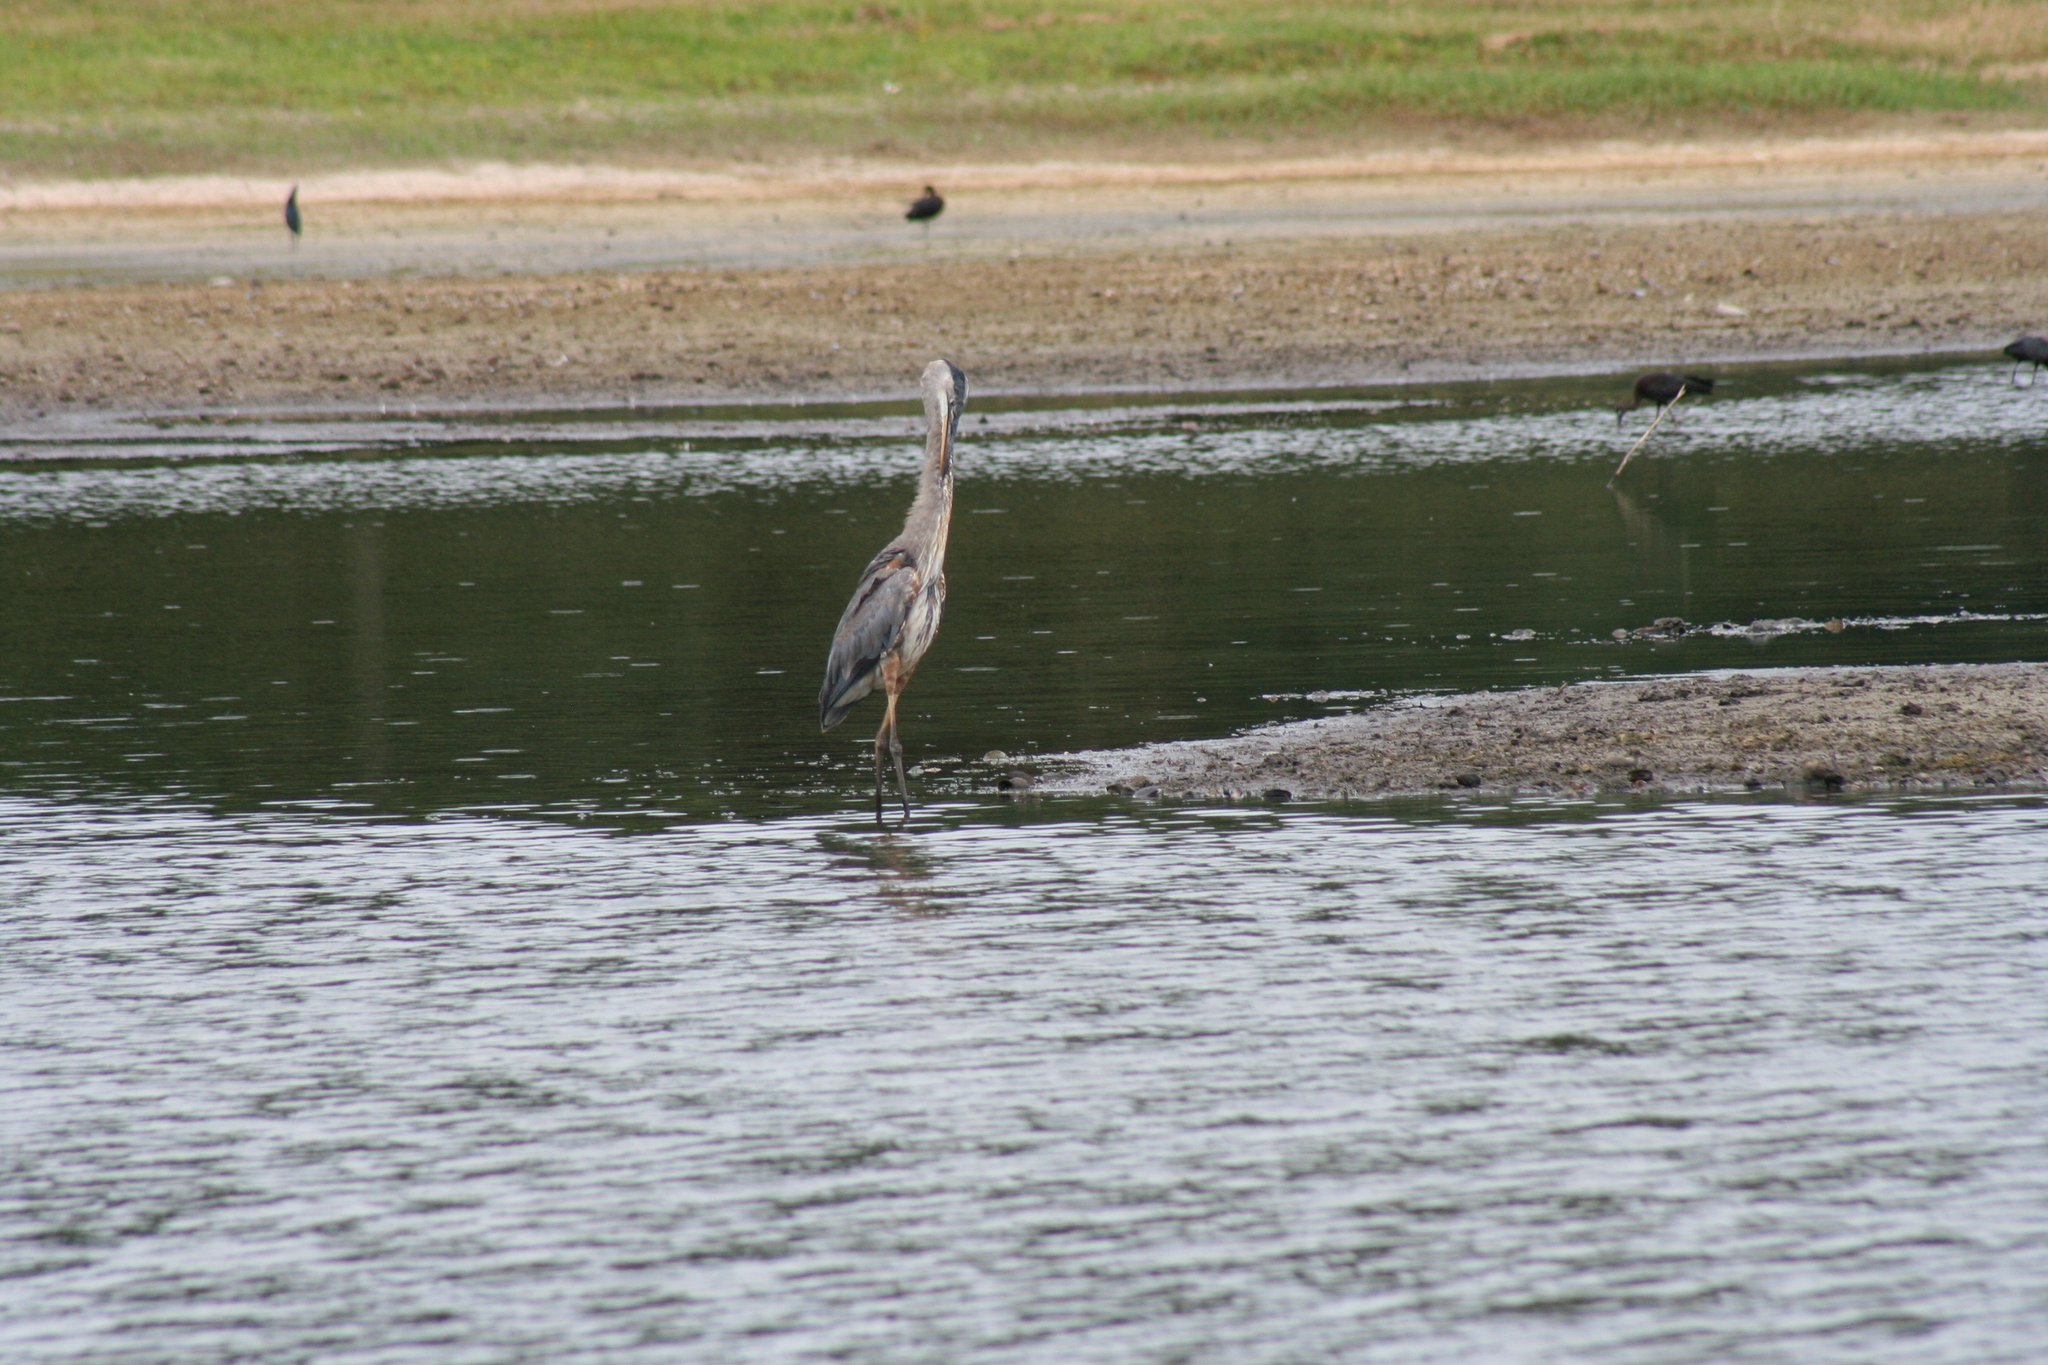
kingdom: Animalia
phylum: Chordata
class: Aves
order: Pelecaniformes
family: Ardeidae
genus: Ardea
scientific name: Ardea herodias
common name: Great blue heron
